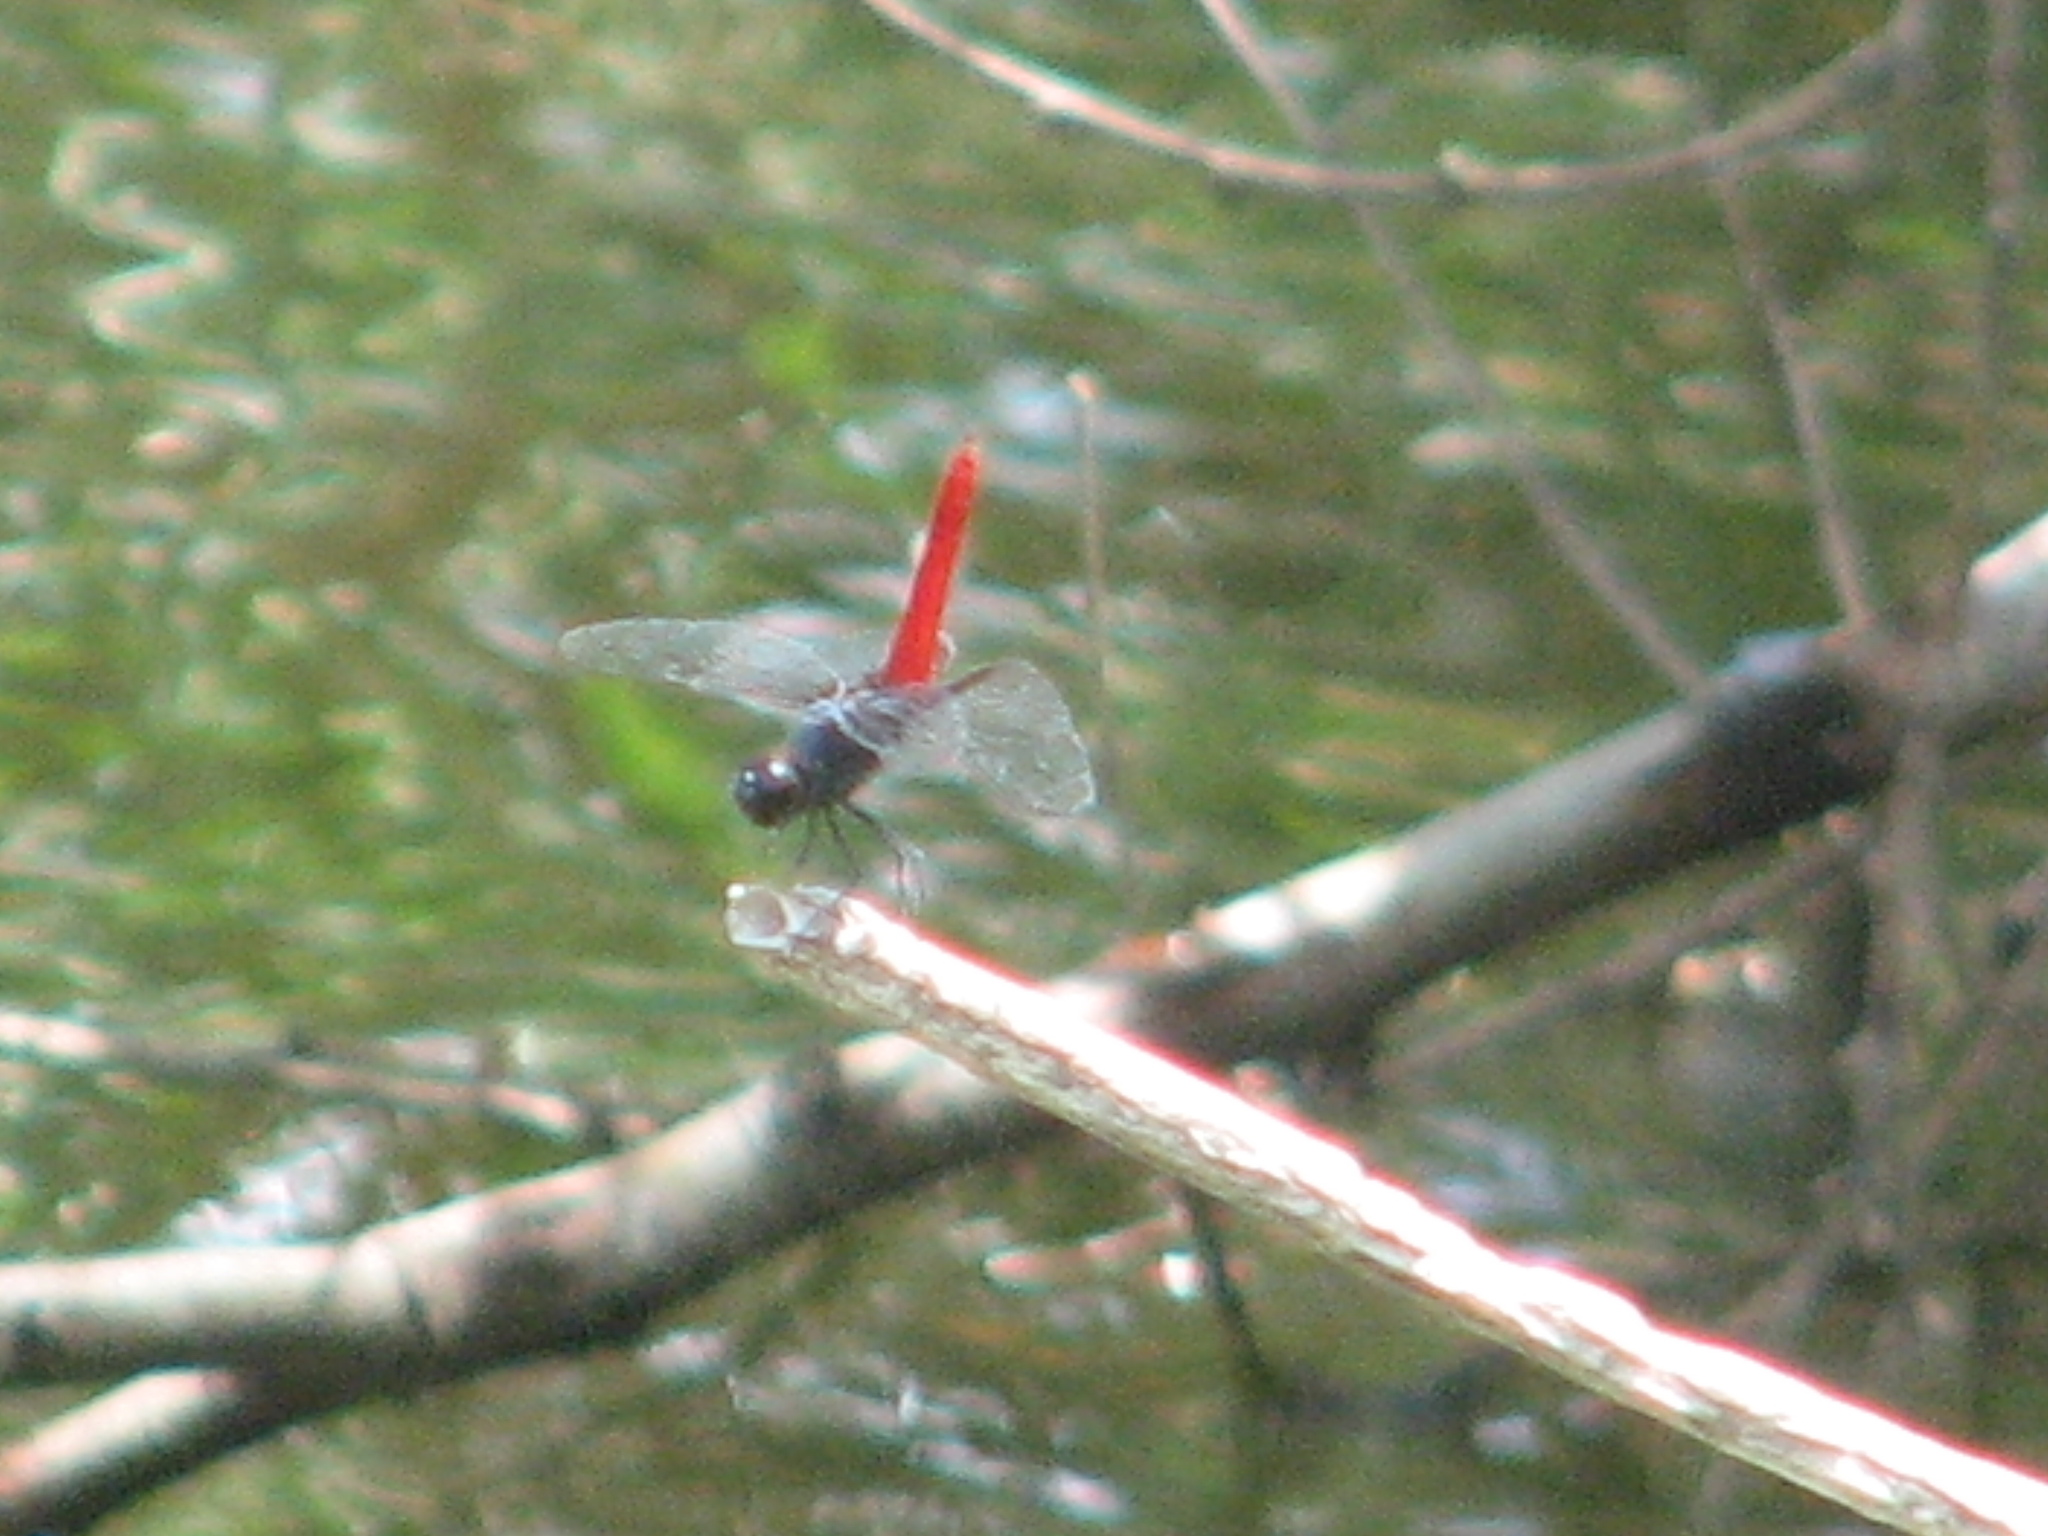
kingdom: Animalia
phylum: Arthropoda
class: Insecta
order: Odonata
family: Libellulidae
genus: Planiplax
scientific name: Planiplax sanguiniventris
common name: Mexican scarlet-tail
